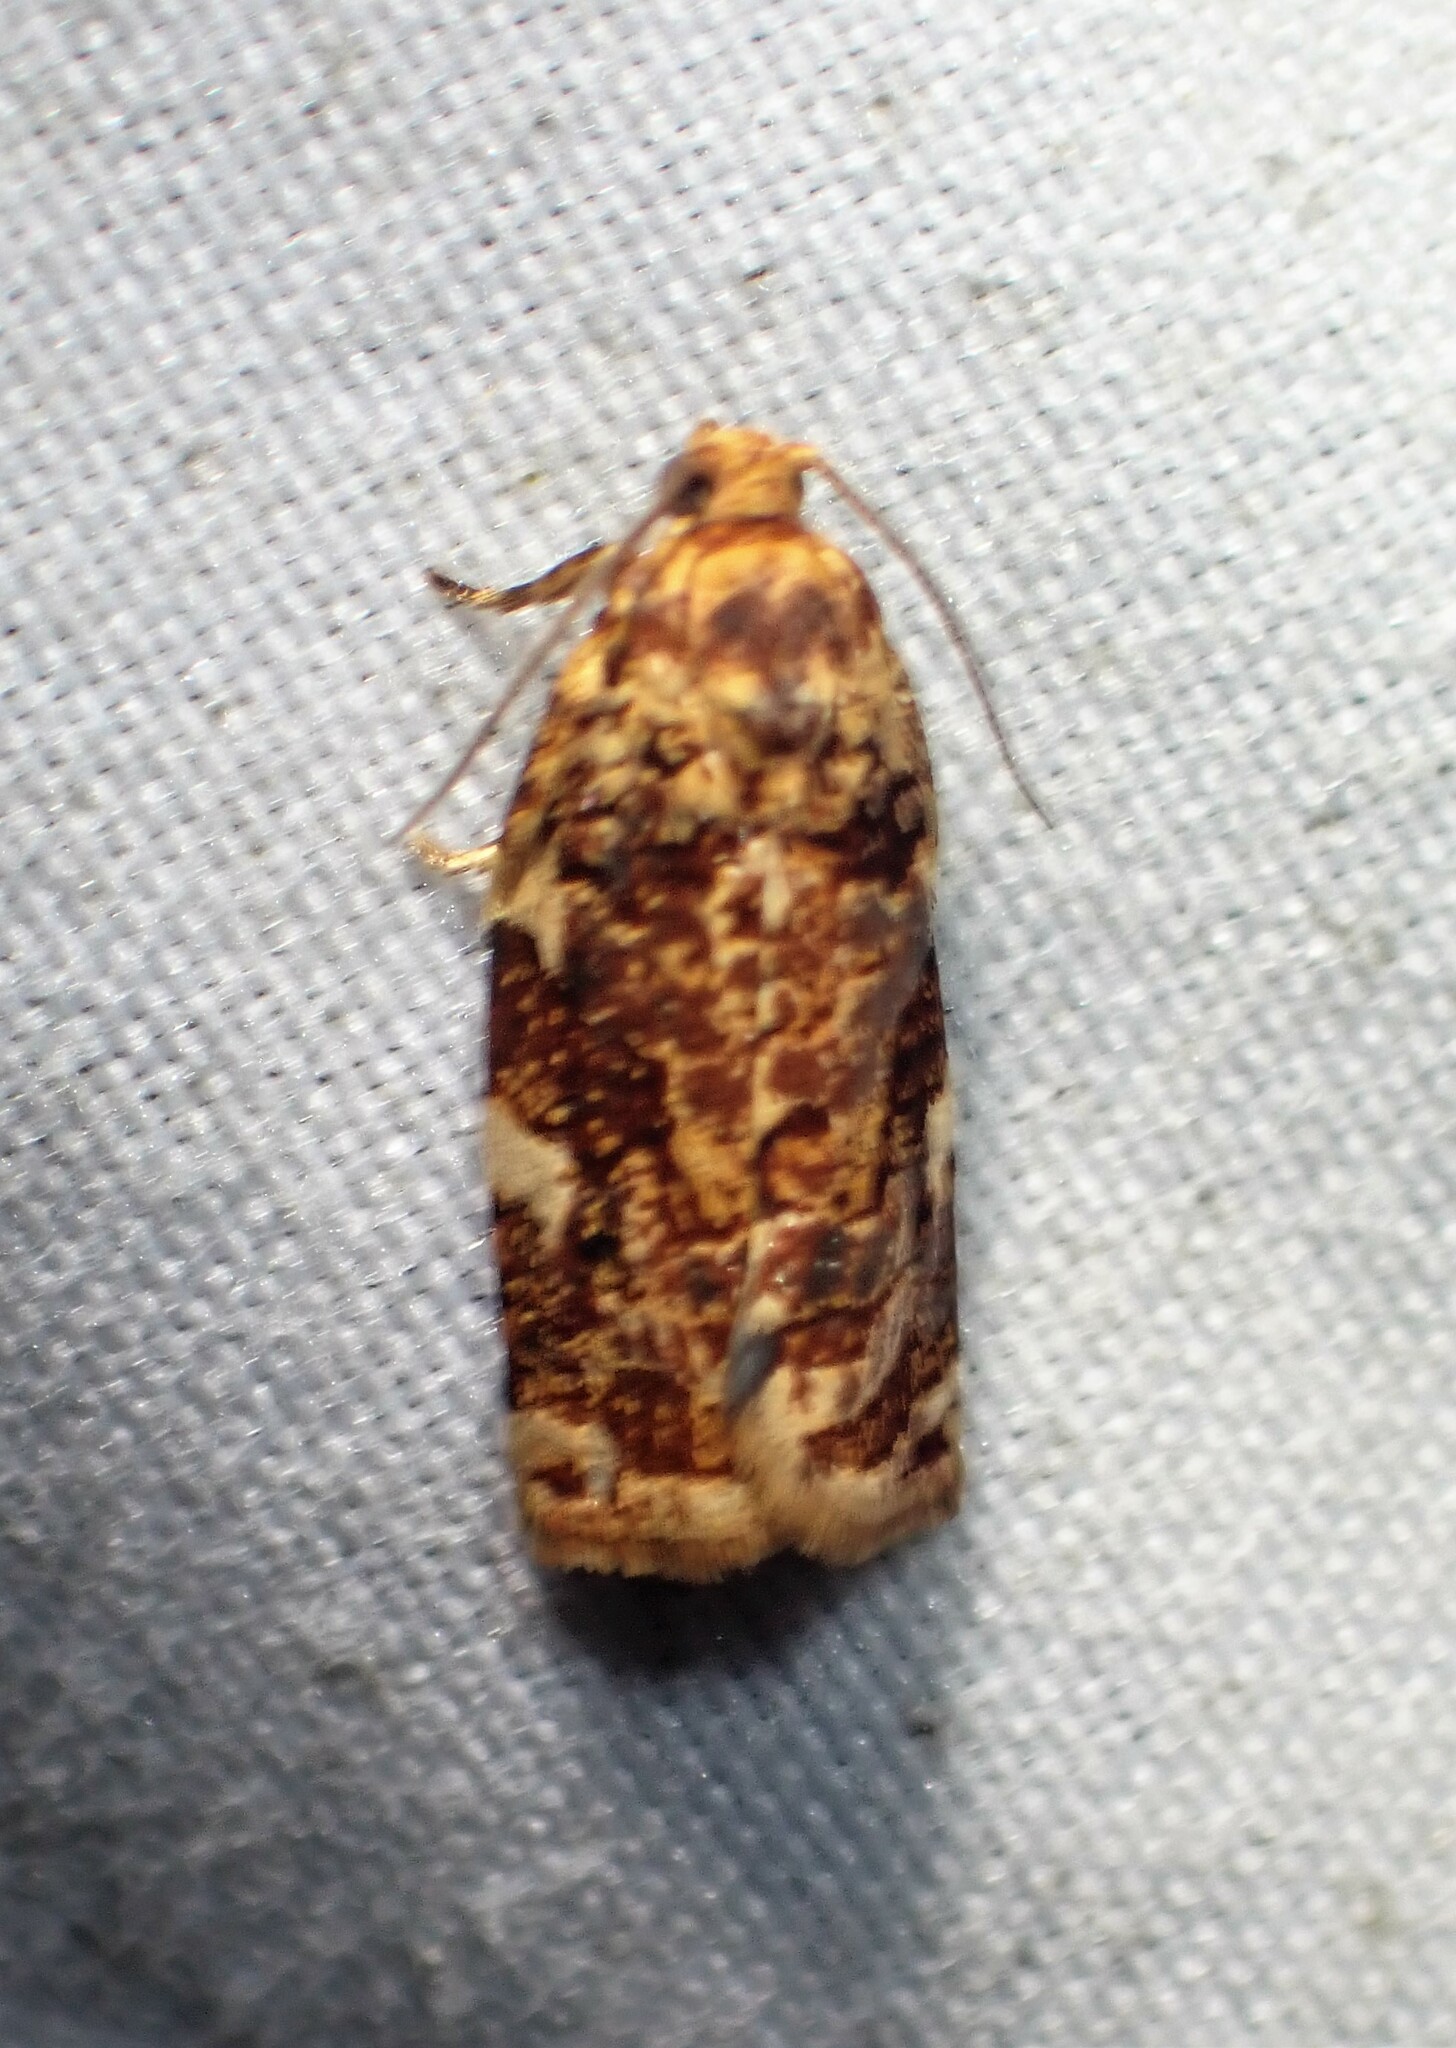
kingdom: Animalia
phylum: Arthropoda
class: Insecta
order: Lepidoptera
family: Tortricidae
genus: Archips
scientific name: Archips argyrospila
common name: Fruit-tree leafroller moth
